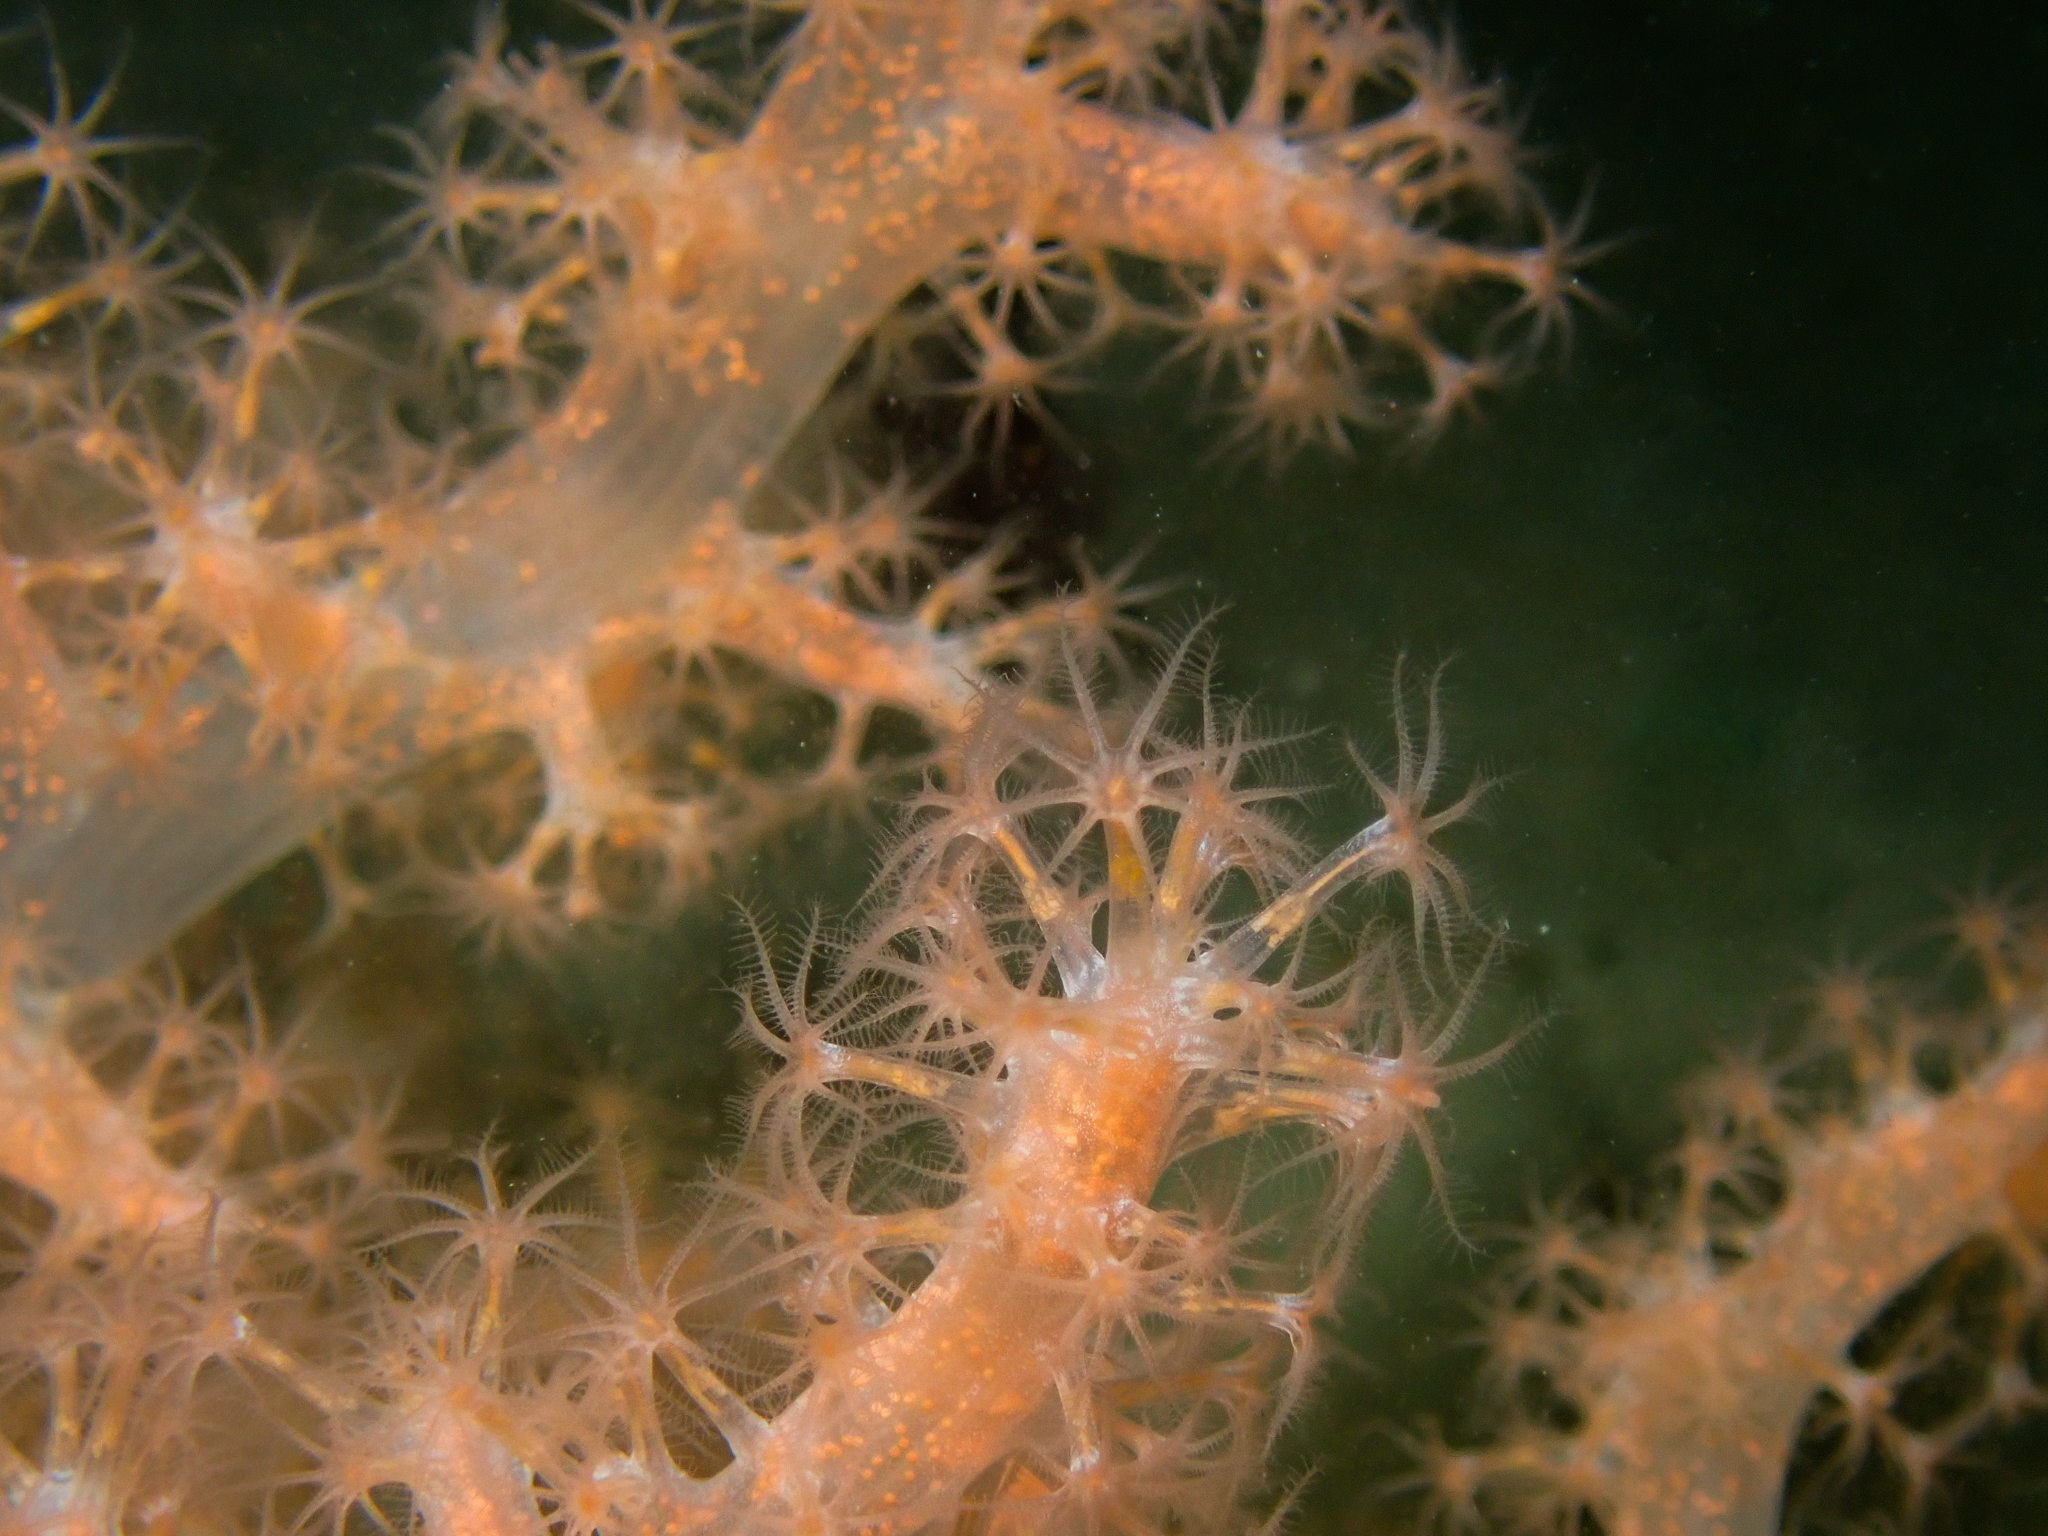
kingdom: Animalia
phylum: Cnidaria
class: Anthozoa
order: Malacalcyonacea
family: Alcyoniidae
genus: Gersemia
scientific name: Gersemia fruticosa
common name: Hedge carnation coral
